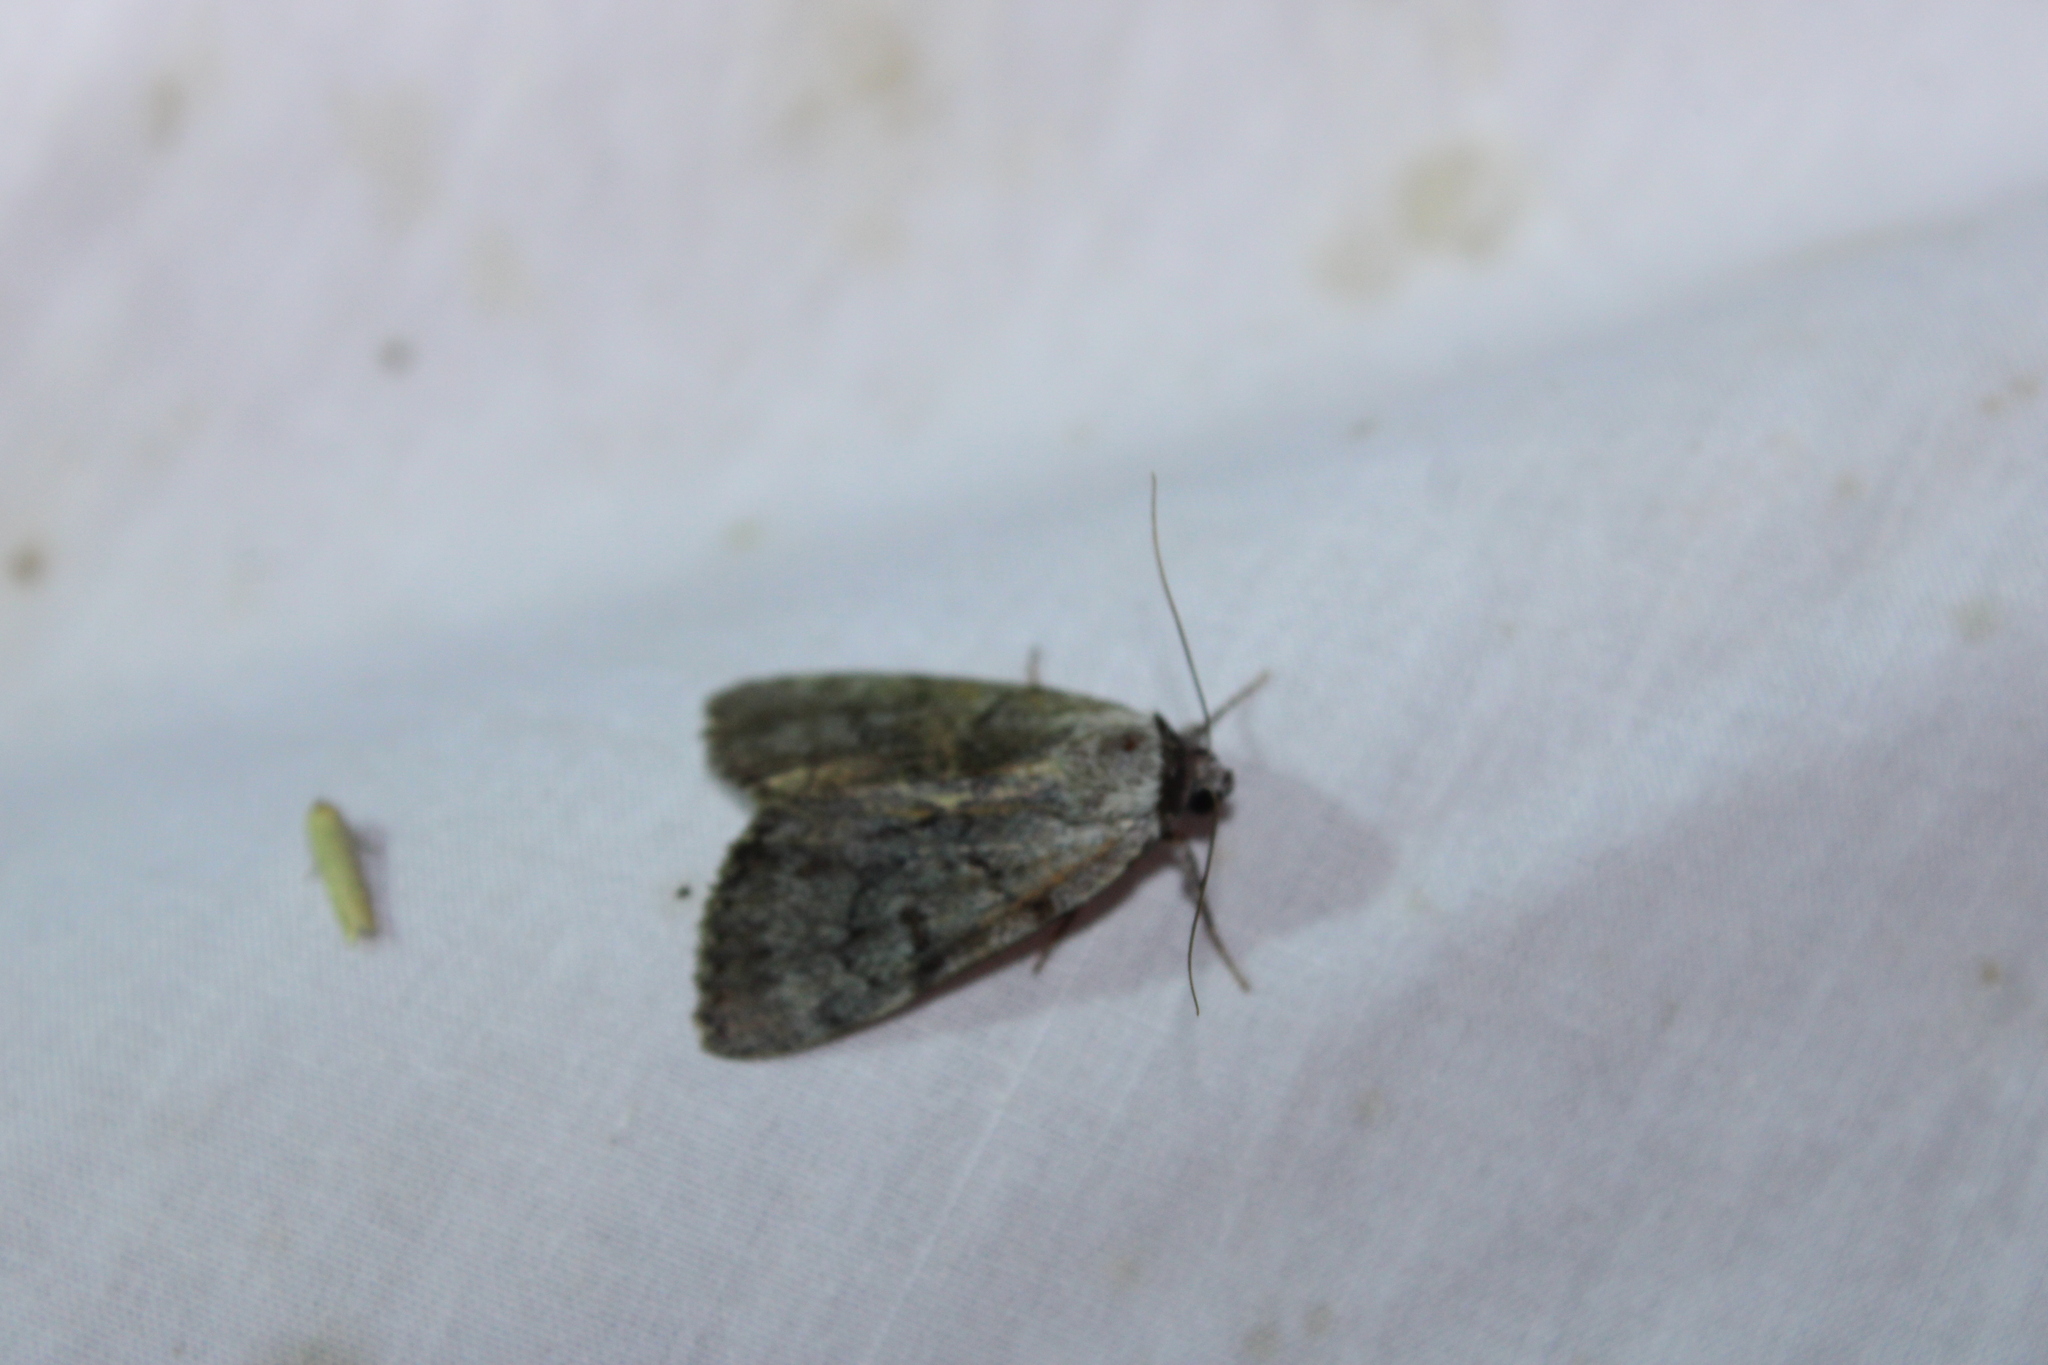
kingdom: Animalia
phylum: Arthropoda
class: Insecta
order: Lepidoptera
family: Erebidae
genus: Catocala
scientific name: Catocala sordida
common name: Sordid underwing
